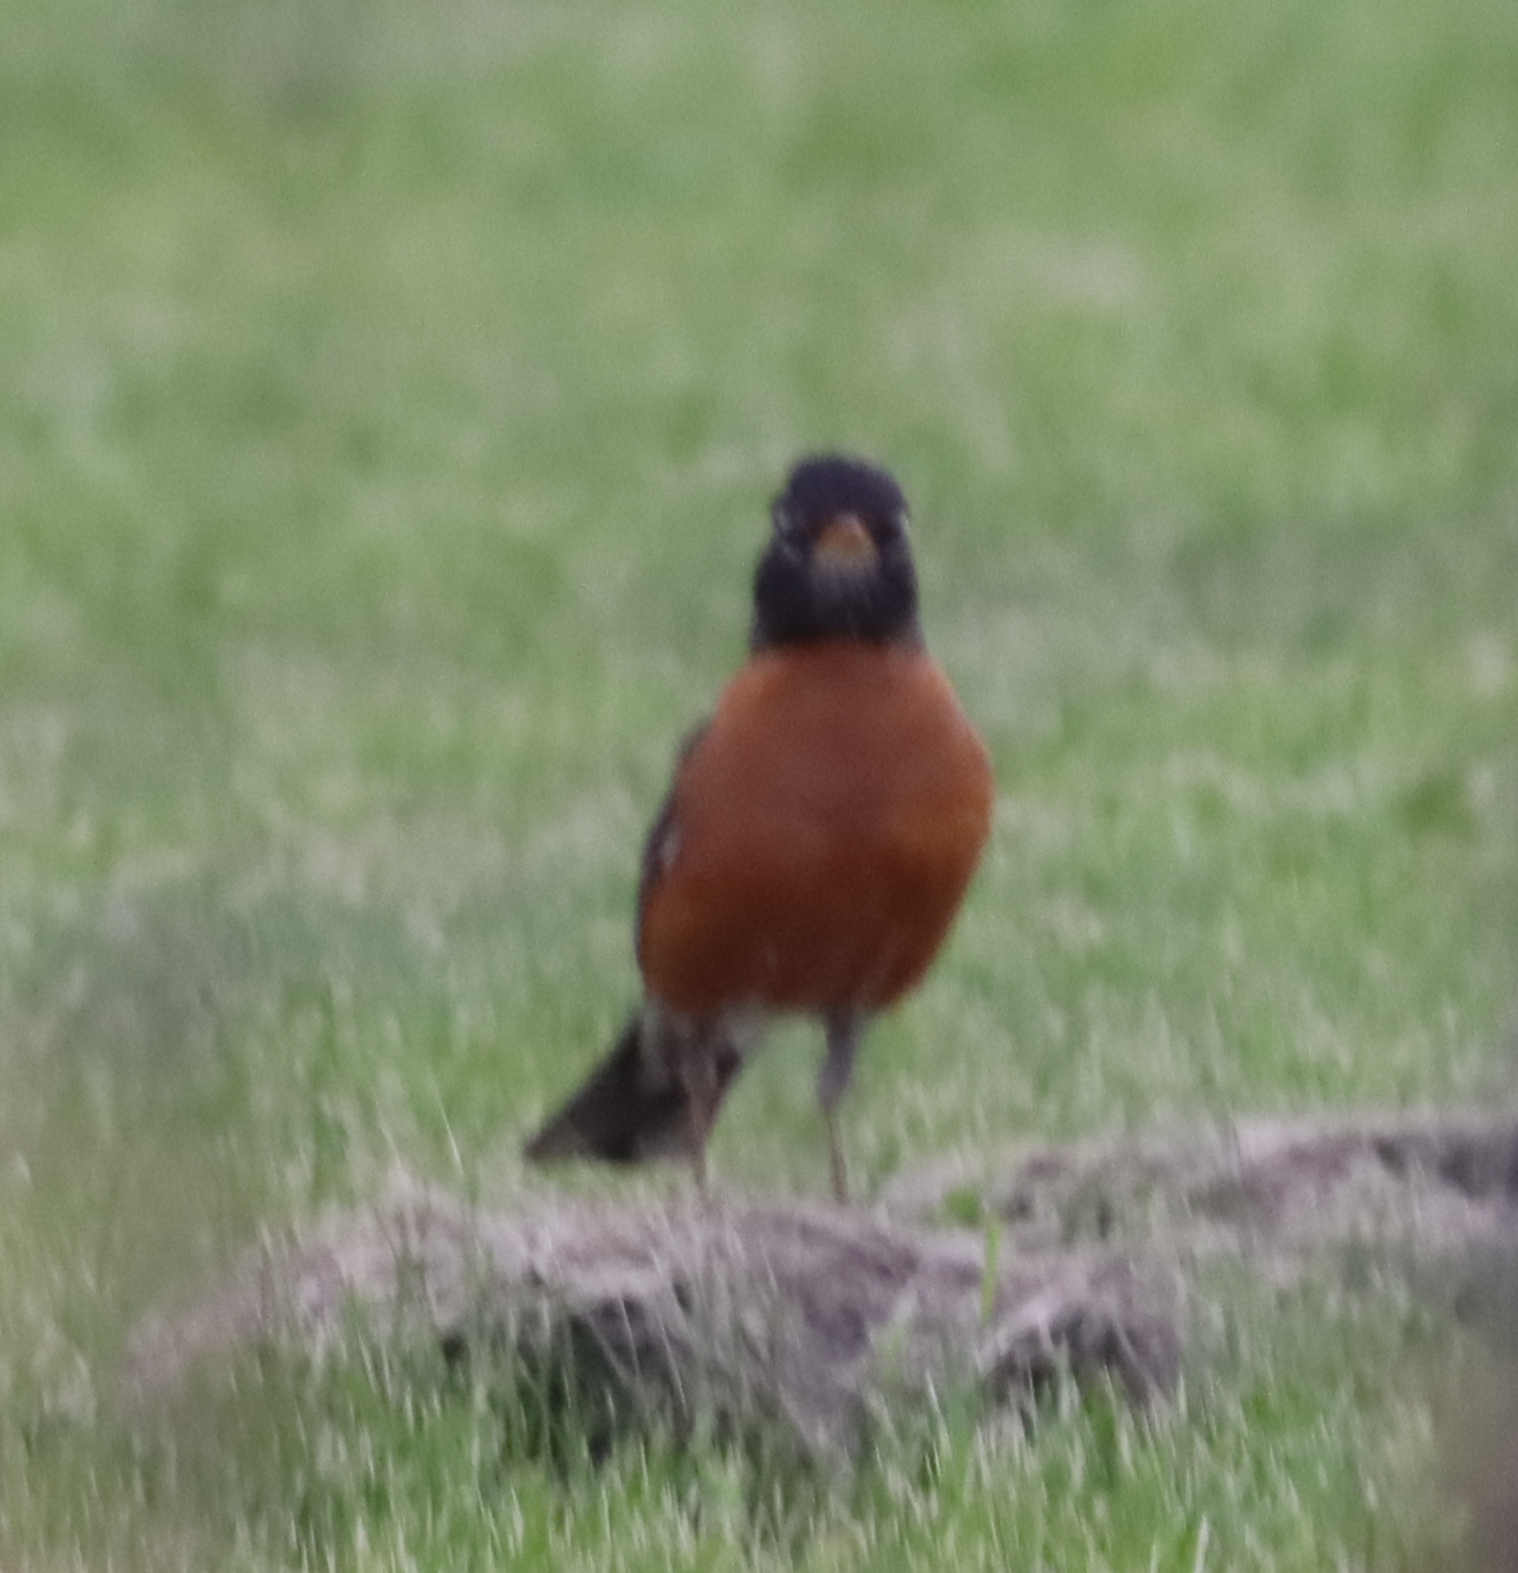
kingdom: Animalia
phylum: Chordata
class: Aves
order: Passeriformes
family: Turdidae
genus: Turdus
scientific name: Turdus migratorius
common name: American robin
